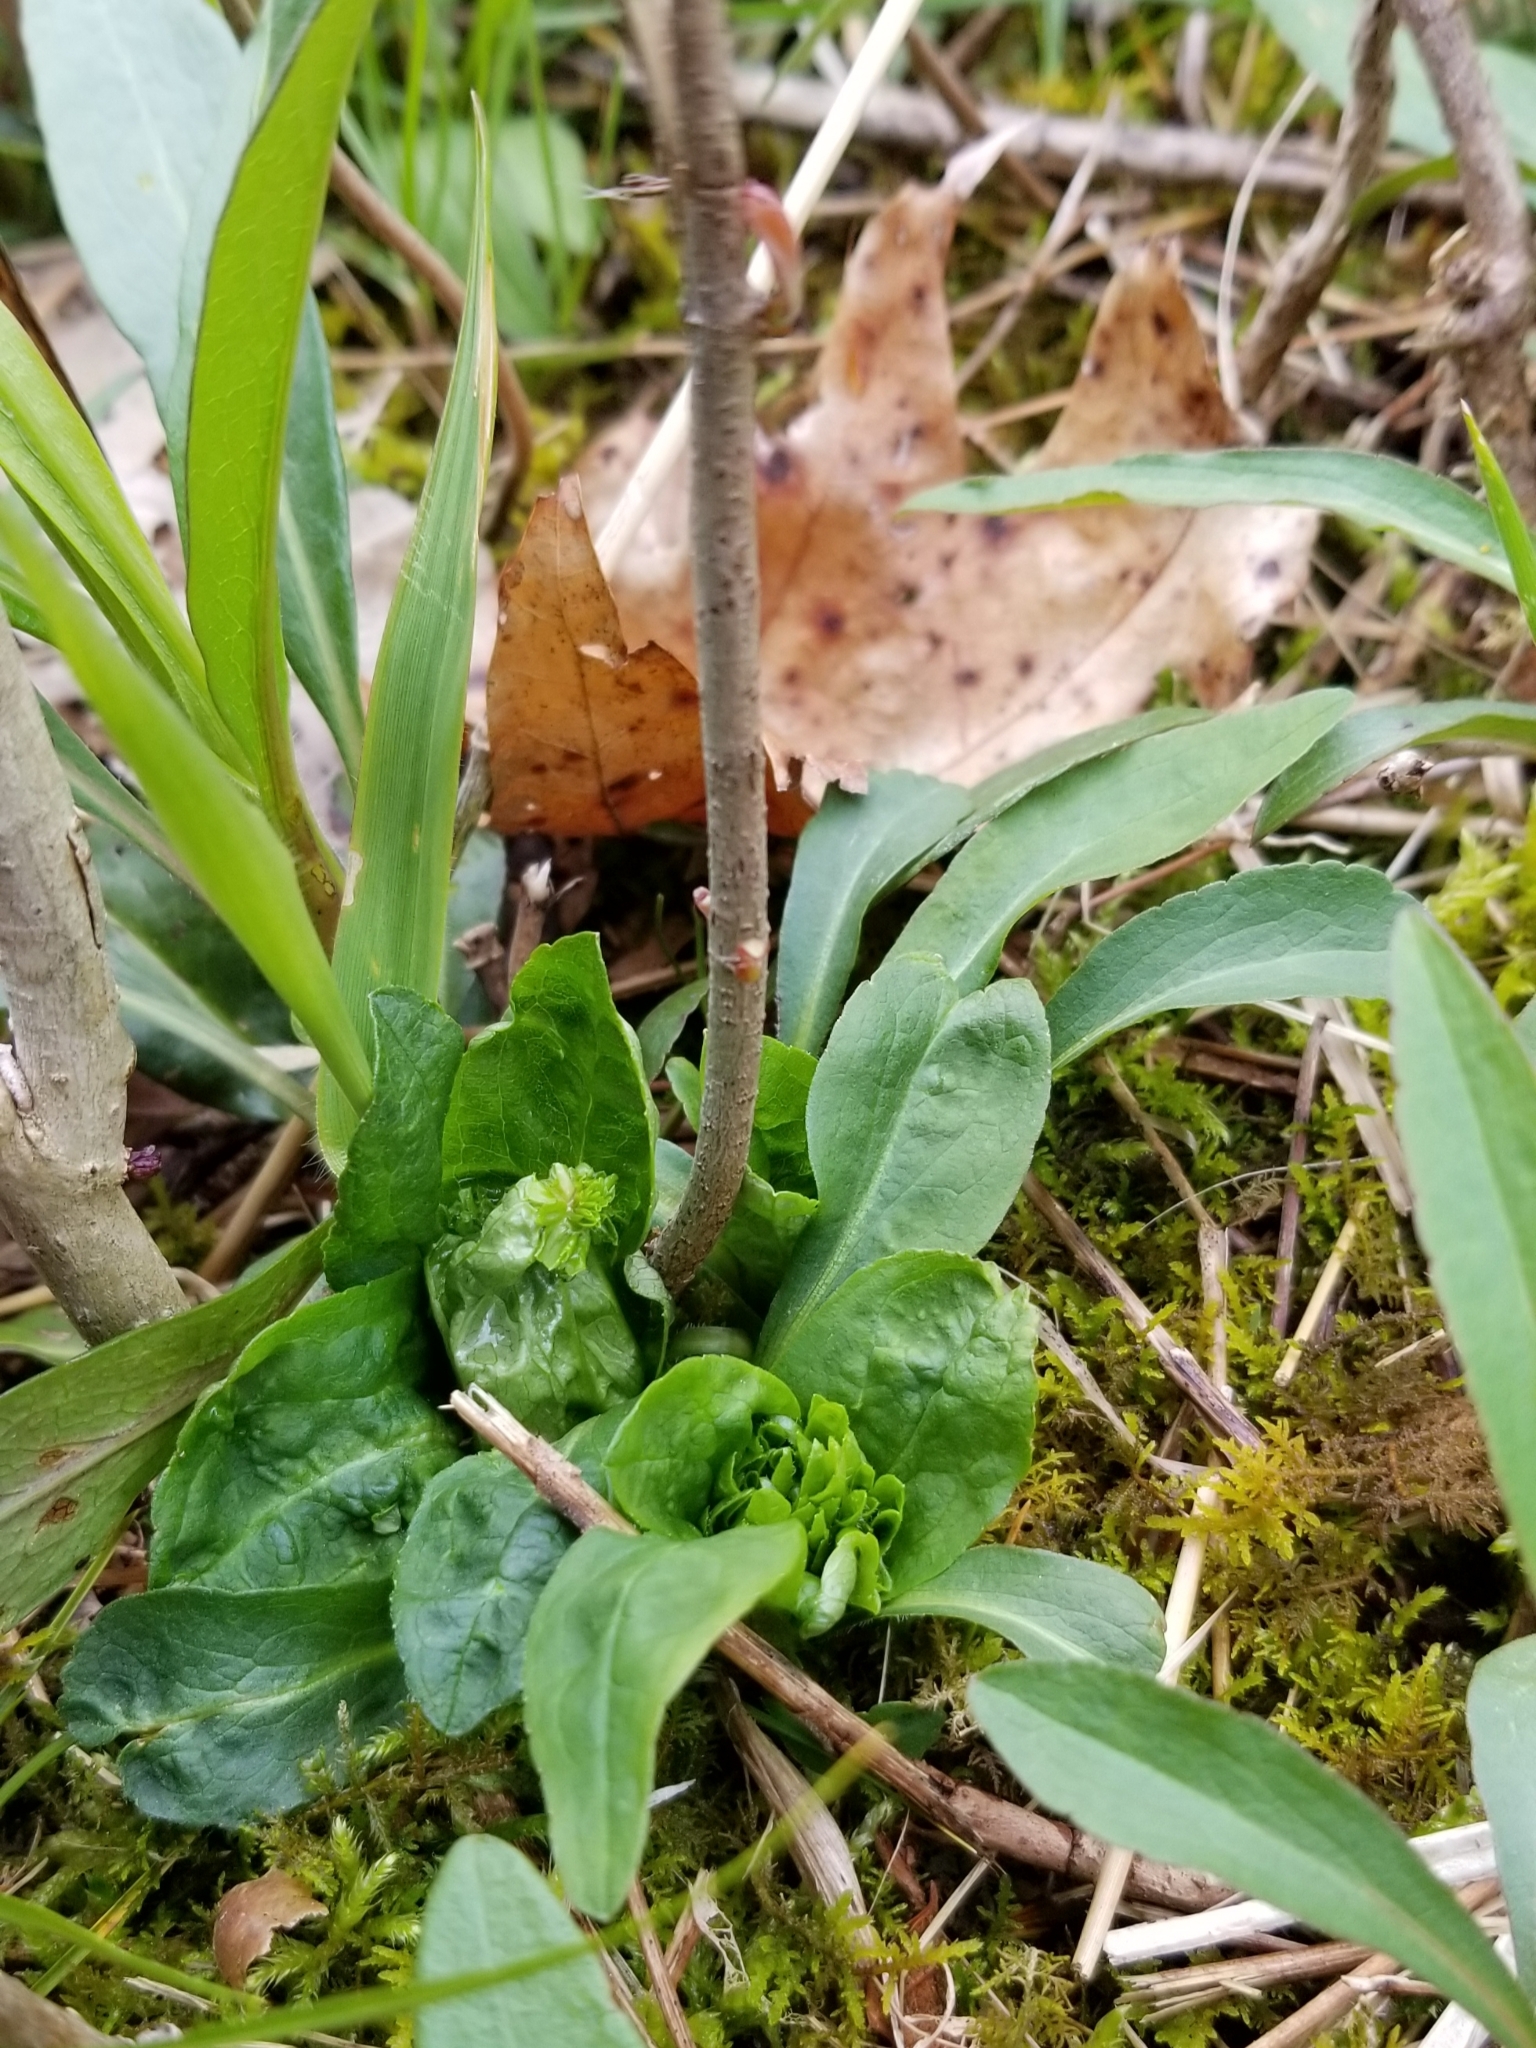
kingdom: Animalia
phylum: Arthropoda
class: Insecta
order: Diptera
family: Cecidomyiidae
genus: Rhopalomyia
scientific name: Rhopalomyia capitata
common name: Giant goldenrod bunch gall midge
